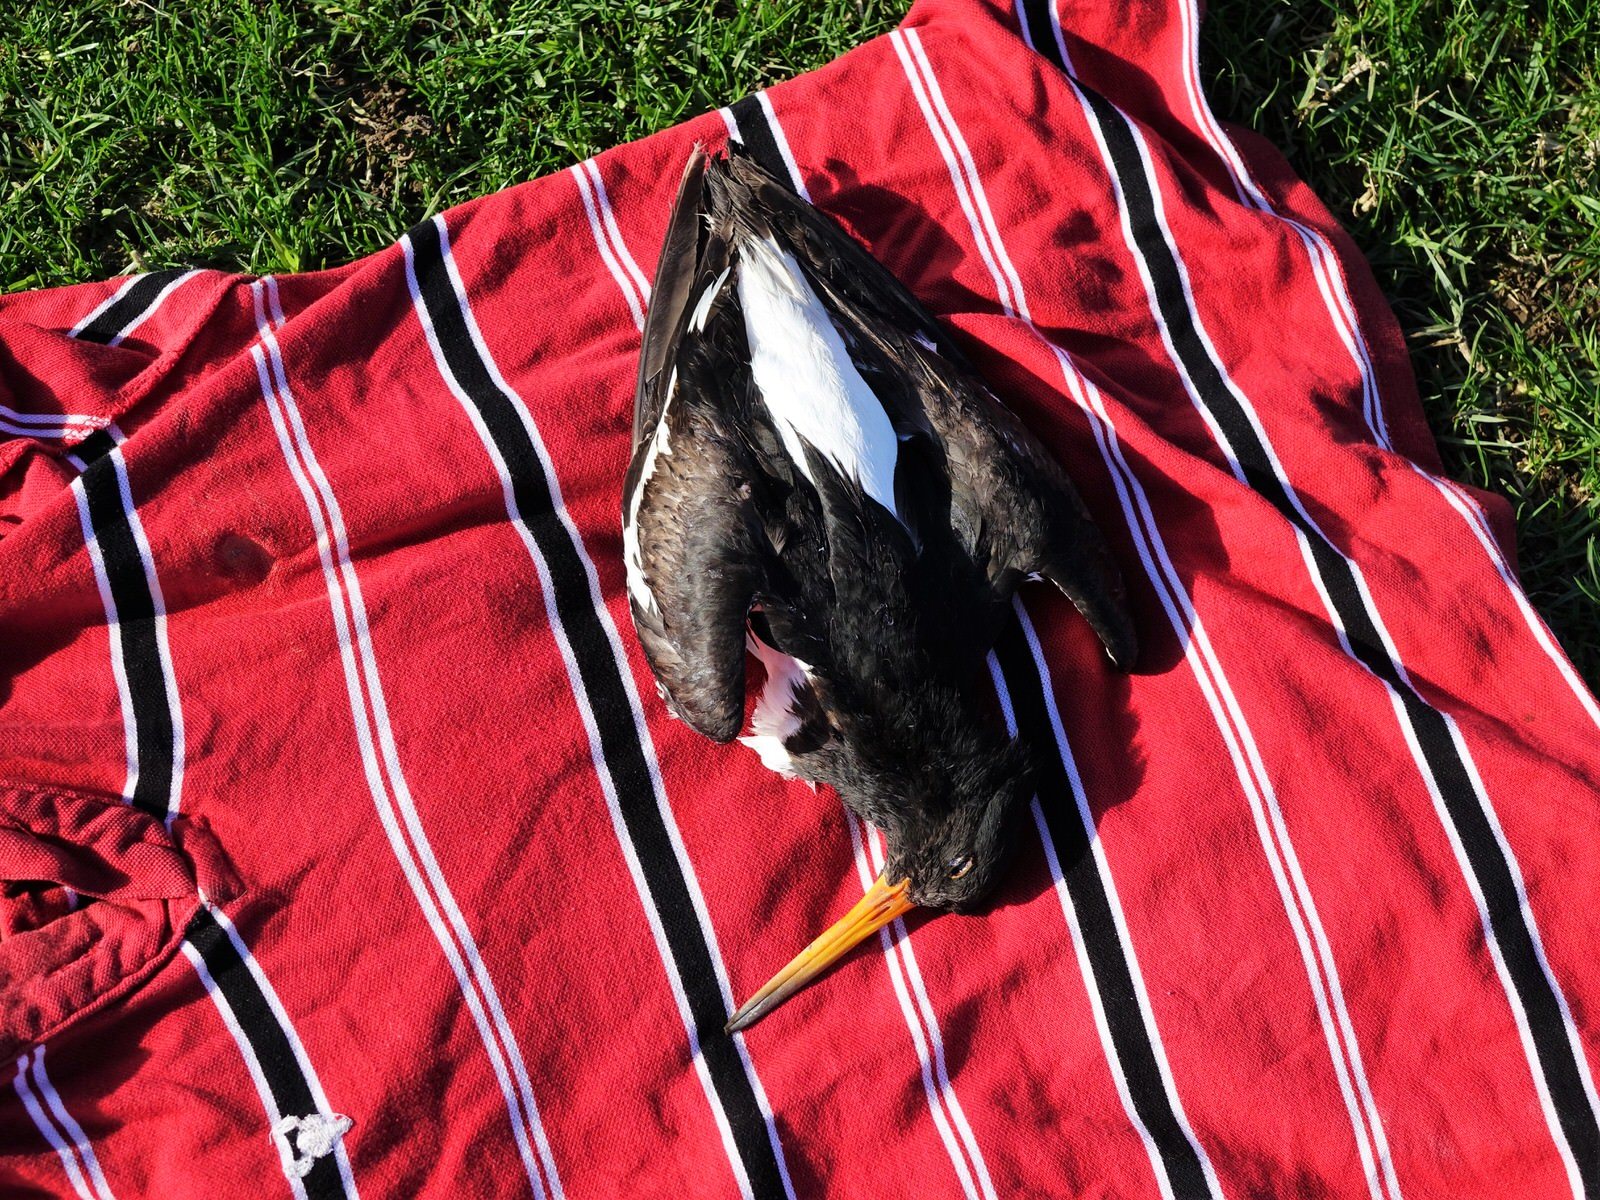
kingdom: Animalia
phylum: Chordata
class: Aves
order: Charadriiformes
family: Haematopodidae
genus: Haematopus
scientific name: Haematopus finschi
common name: South island oystercatcher
